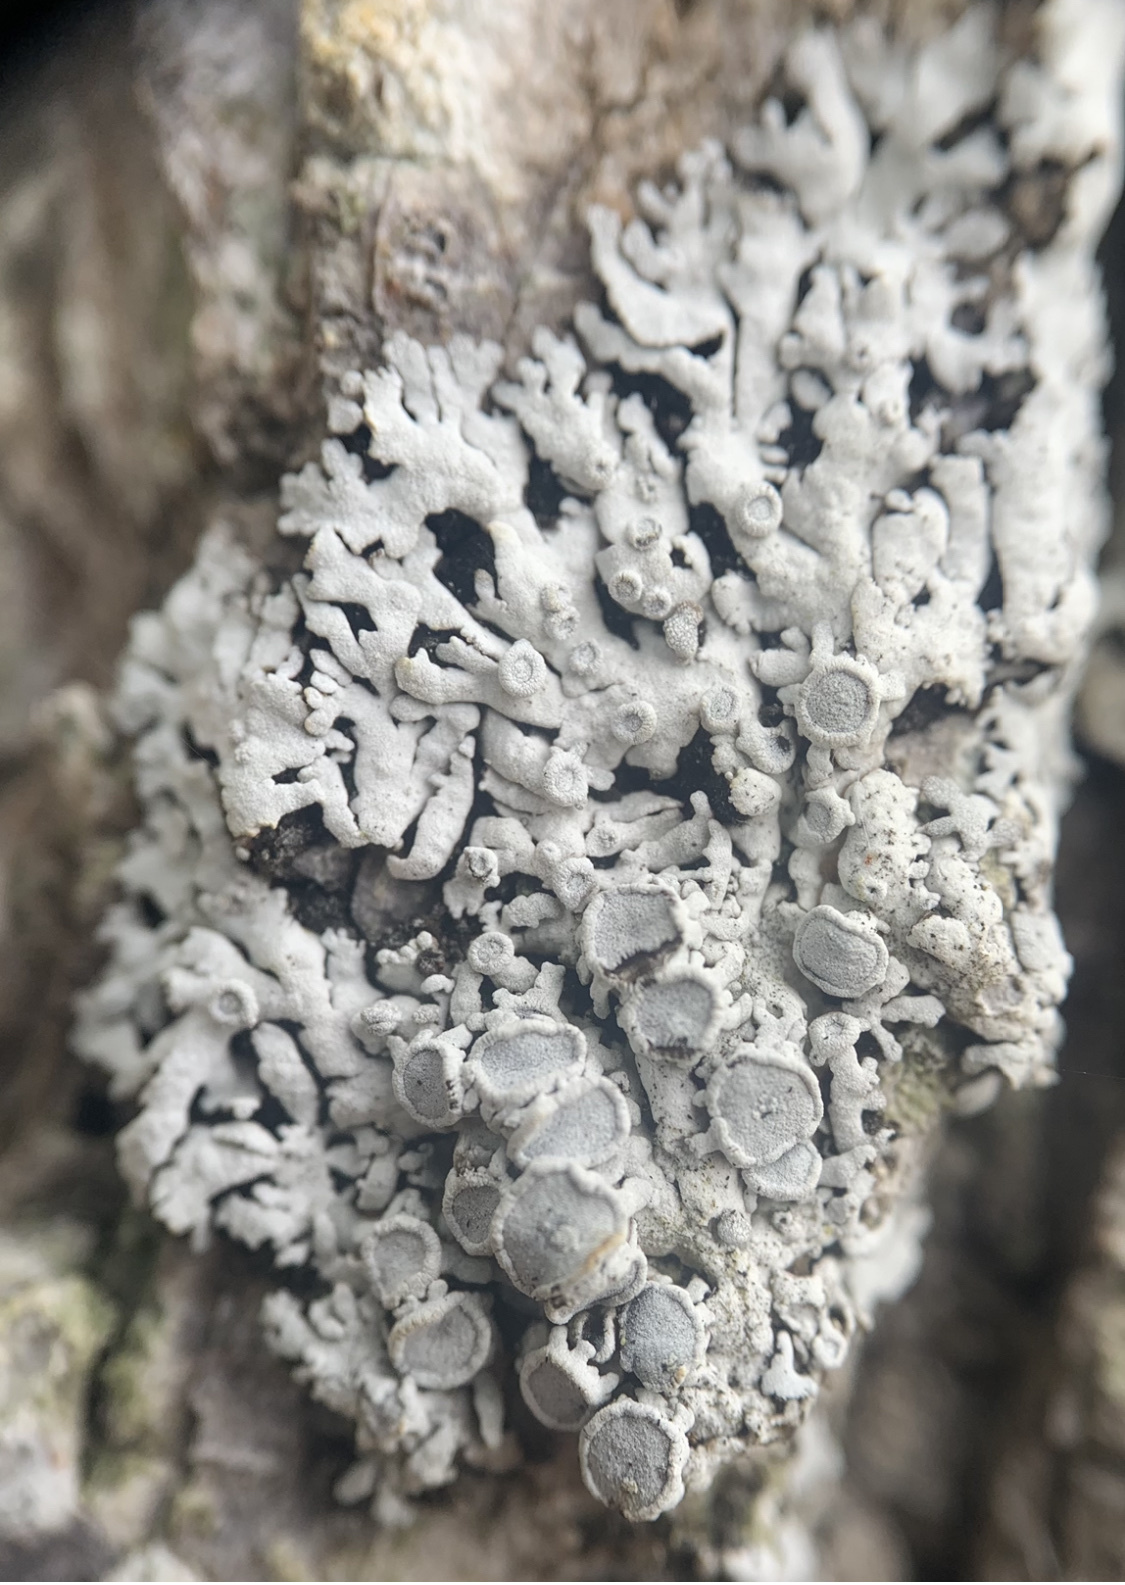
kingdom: Fungi
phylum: Ascomycota
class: Lecanoromycetes
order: Caliciales
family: Physciaceae
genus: Physconia
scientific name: Physconia subpallida
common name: Pale-belly frost lichen
